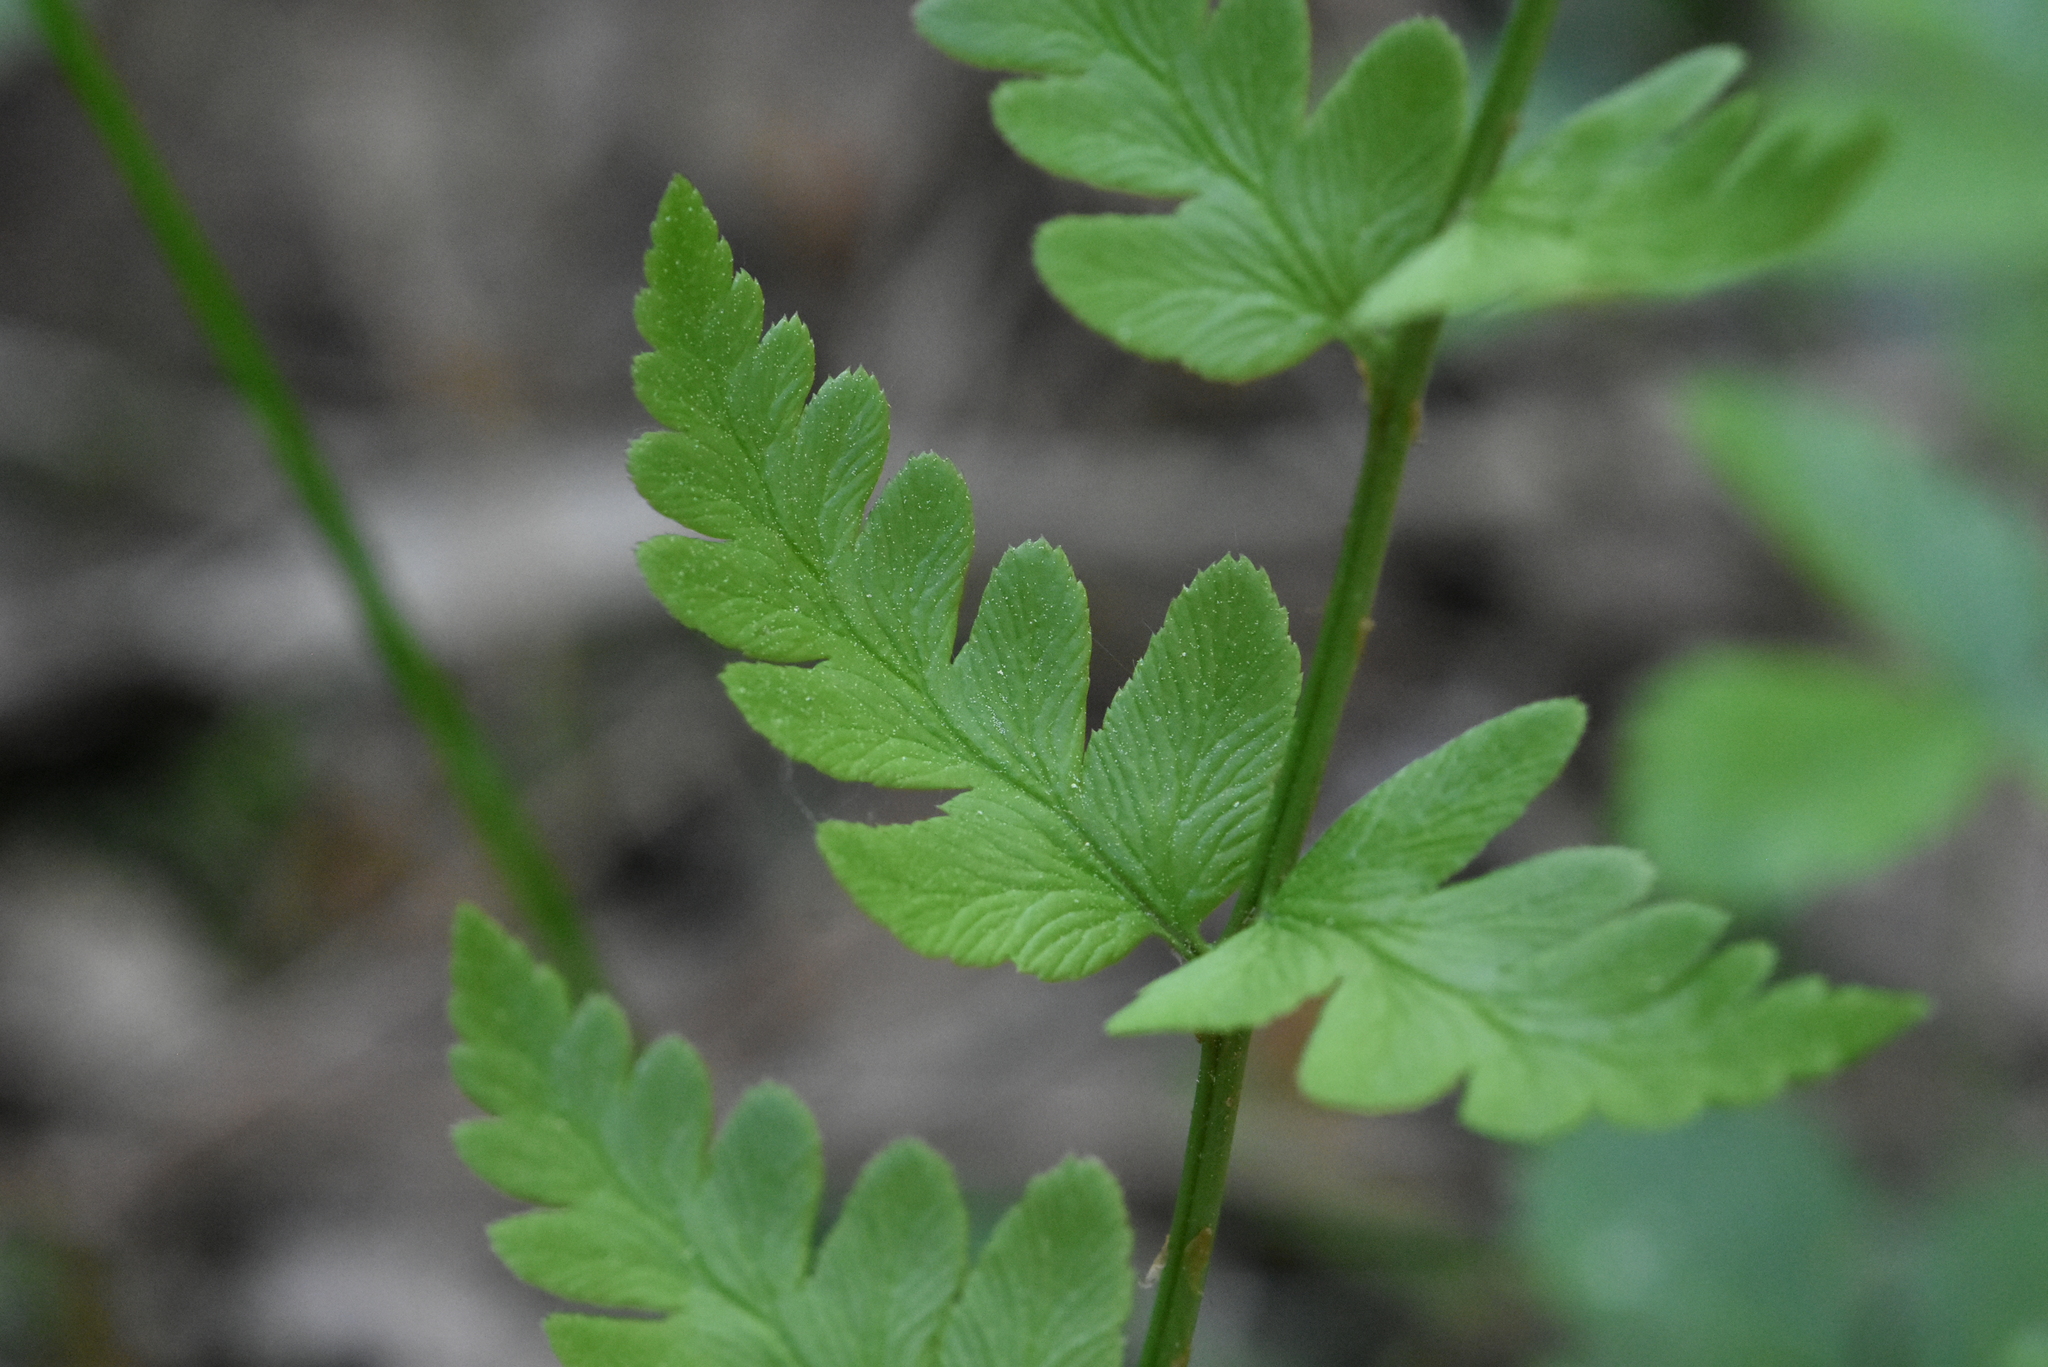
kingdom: Plantae
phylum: Tracheophyta
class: Polypodiopsida
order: Polypodiales
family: Dryopteridaceae
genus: Dryopteris
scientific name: Dryopteris cristata
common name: Crested wood fern
